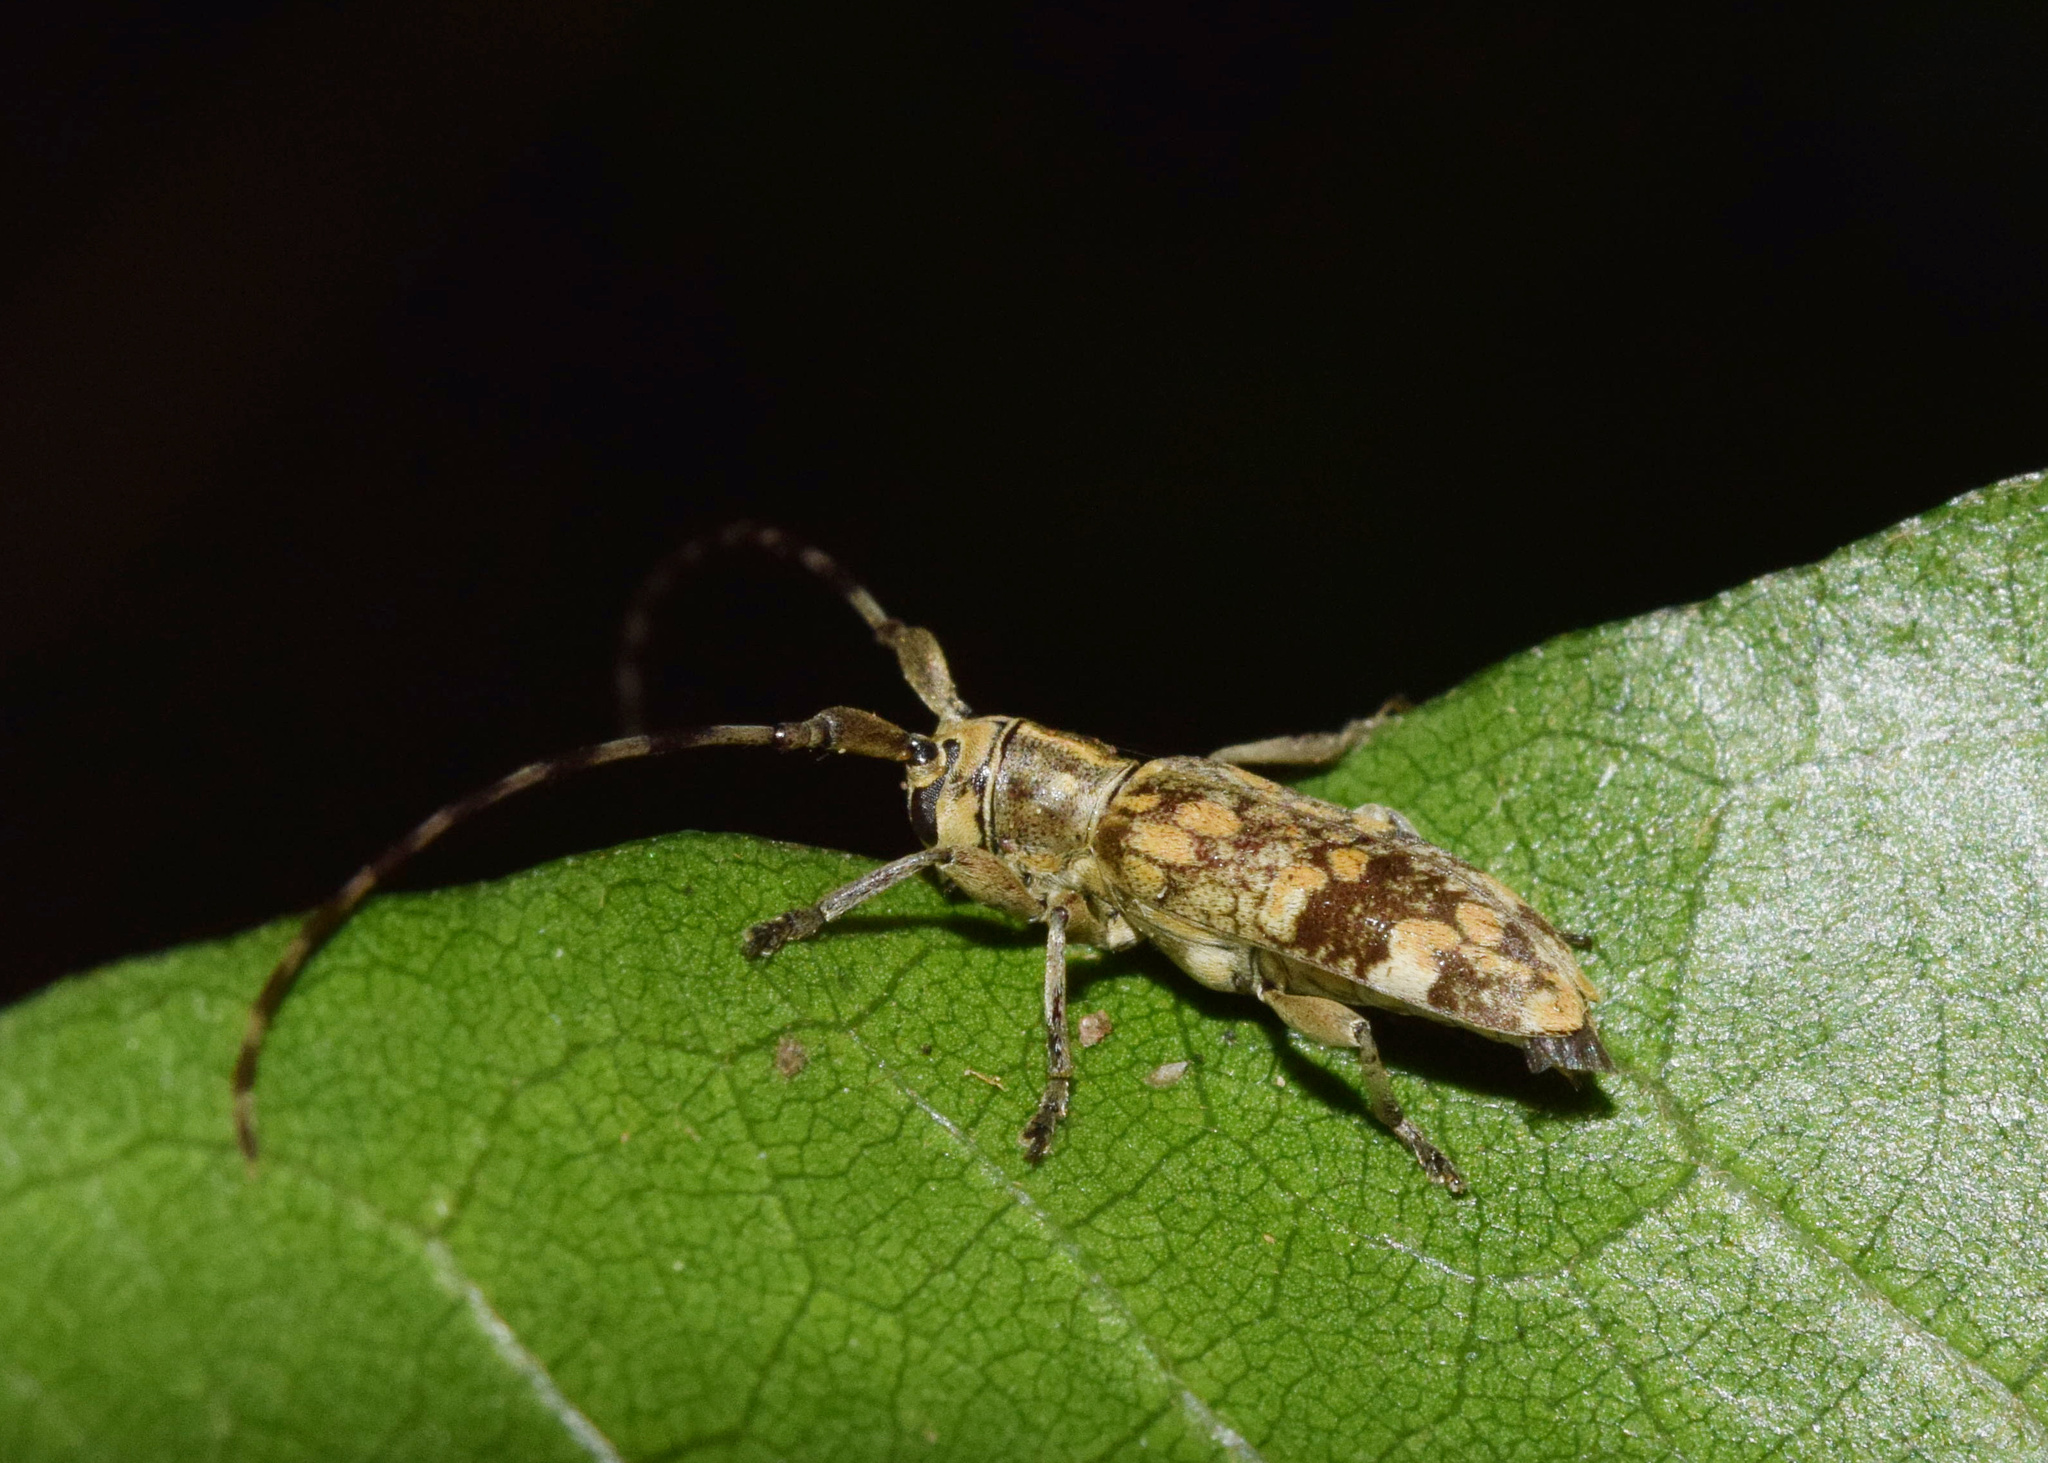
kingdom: Animalia
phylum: Arthropoda
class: Insecta
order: Coleoptera
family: Cerambycidae
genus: Eunidia
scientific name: Eunidia dilacerata
